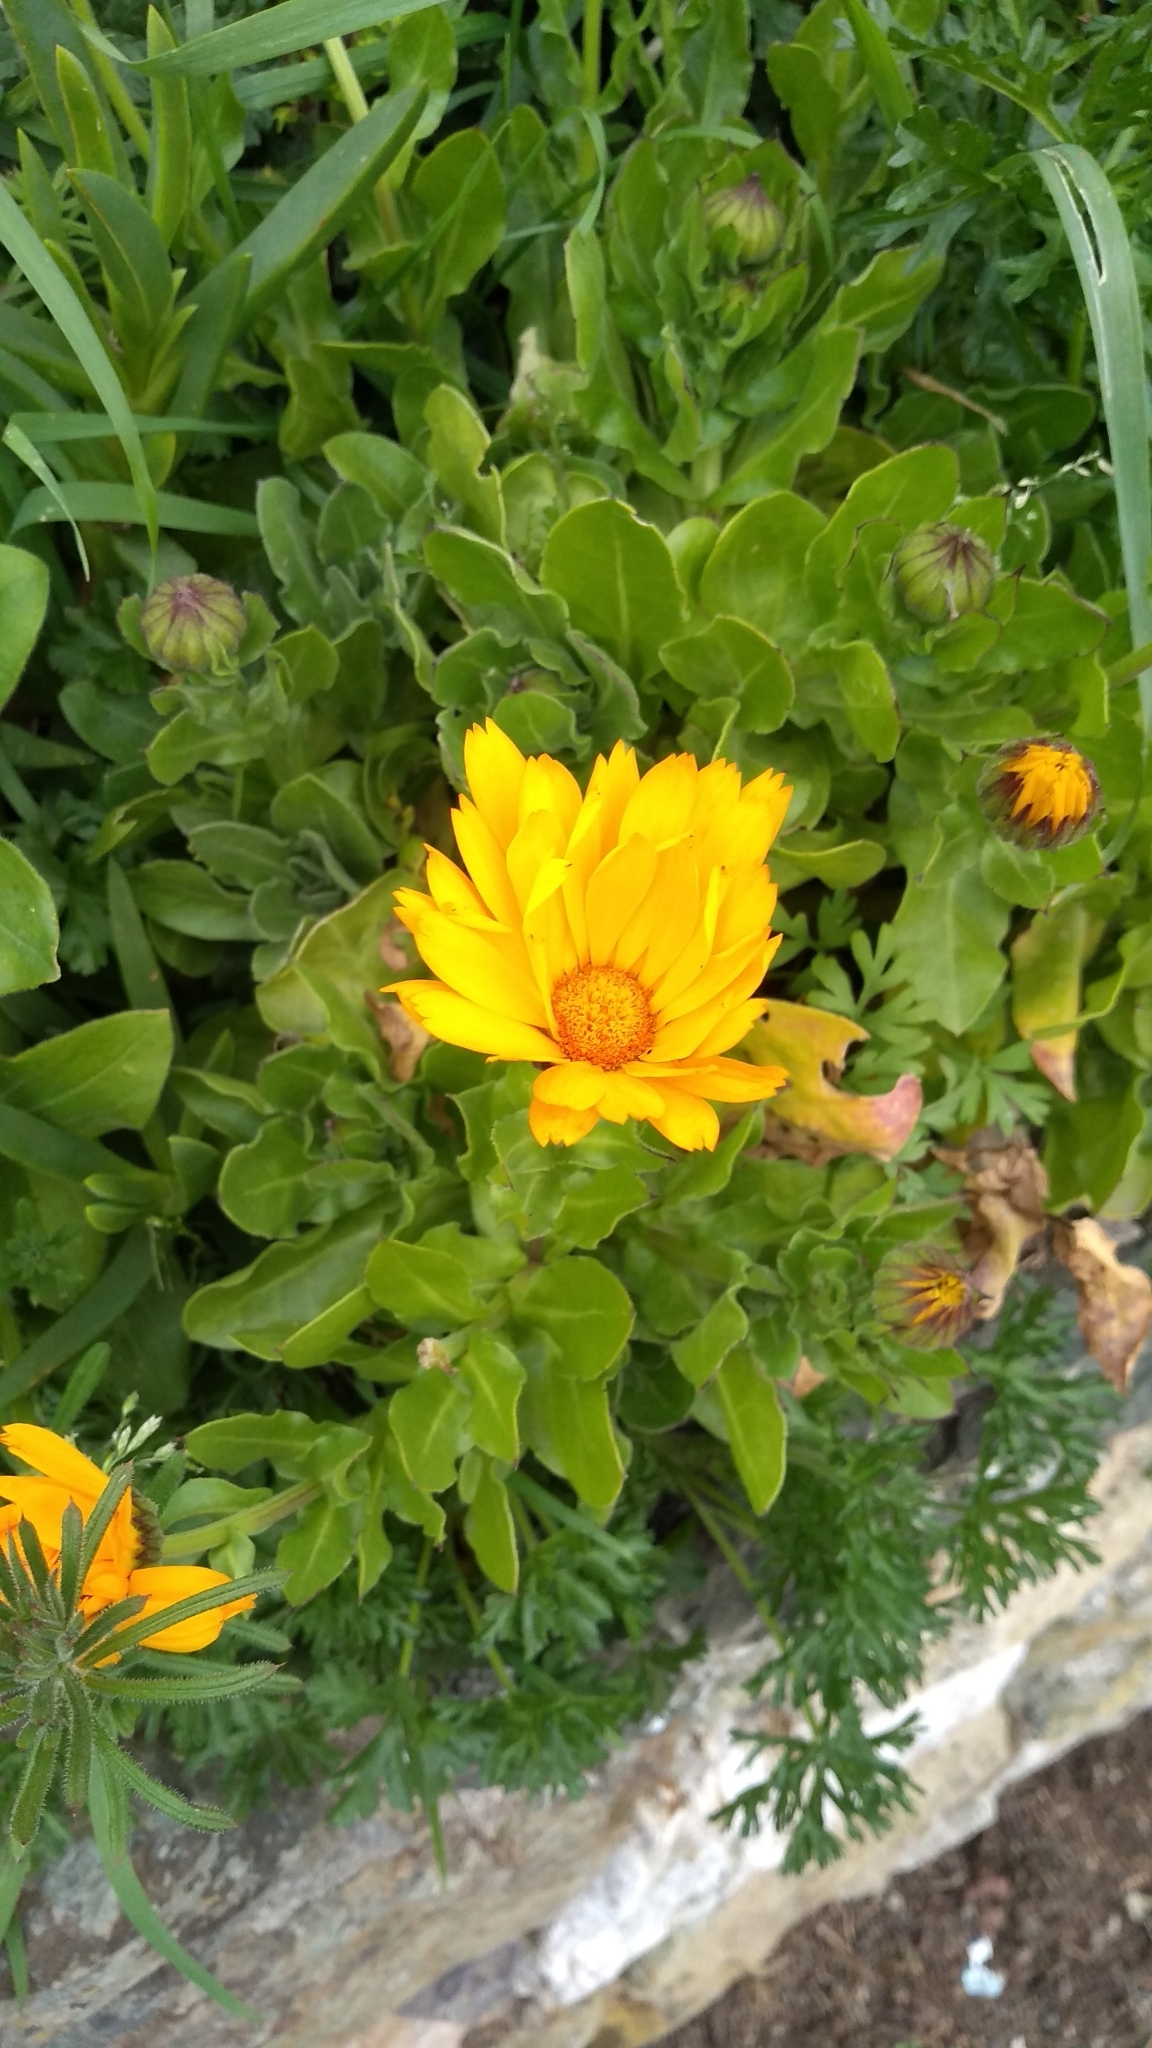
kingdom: Plantae
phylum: Tracheophyta
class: Magnoliopsida
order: Asterales
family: Asteraceae
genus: Calendula
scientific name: Calendula officinalis
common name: Pot marigold
